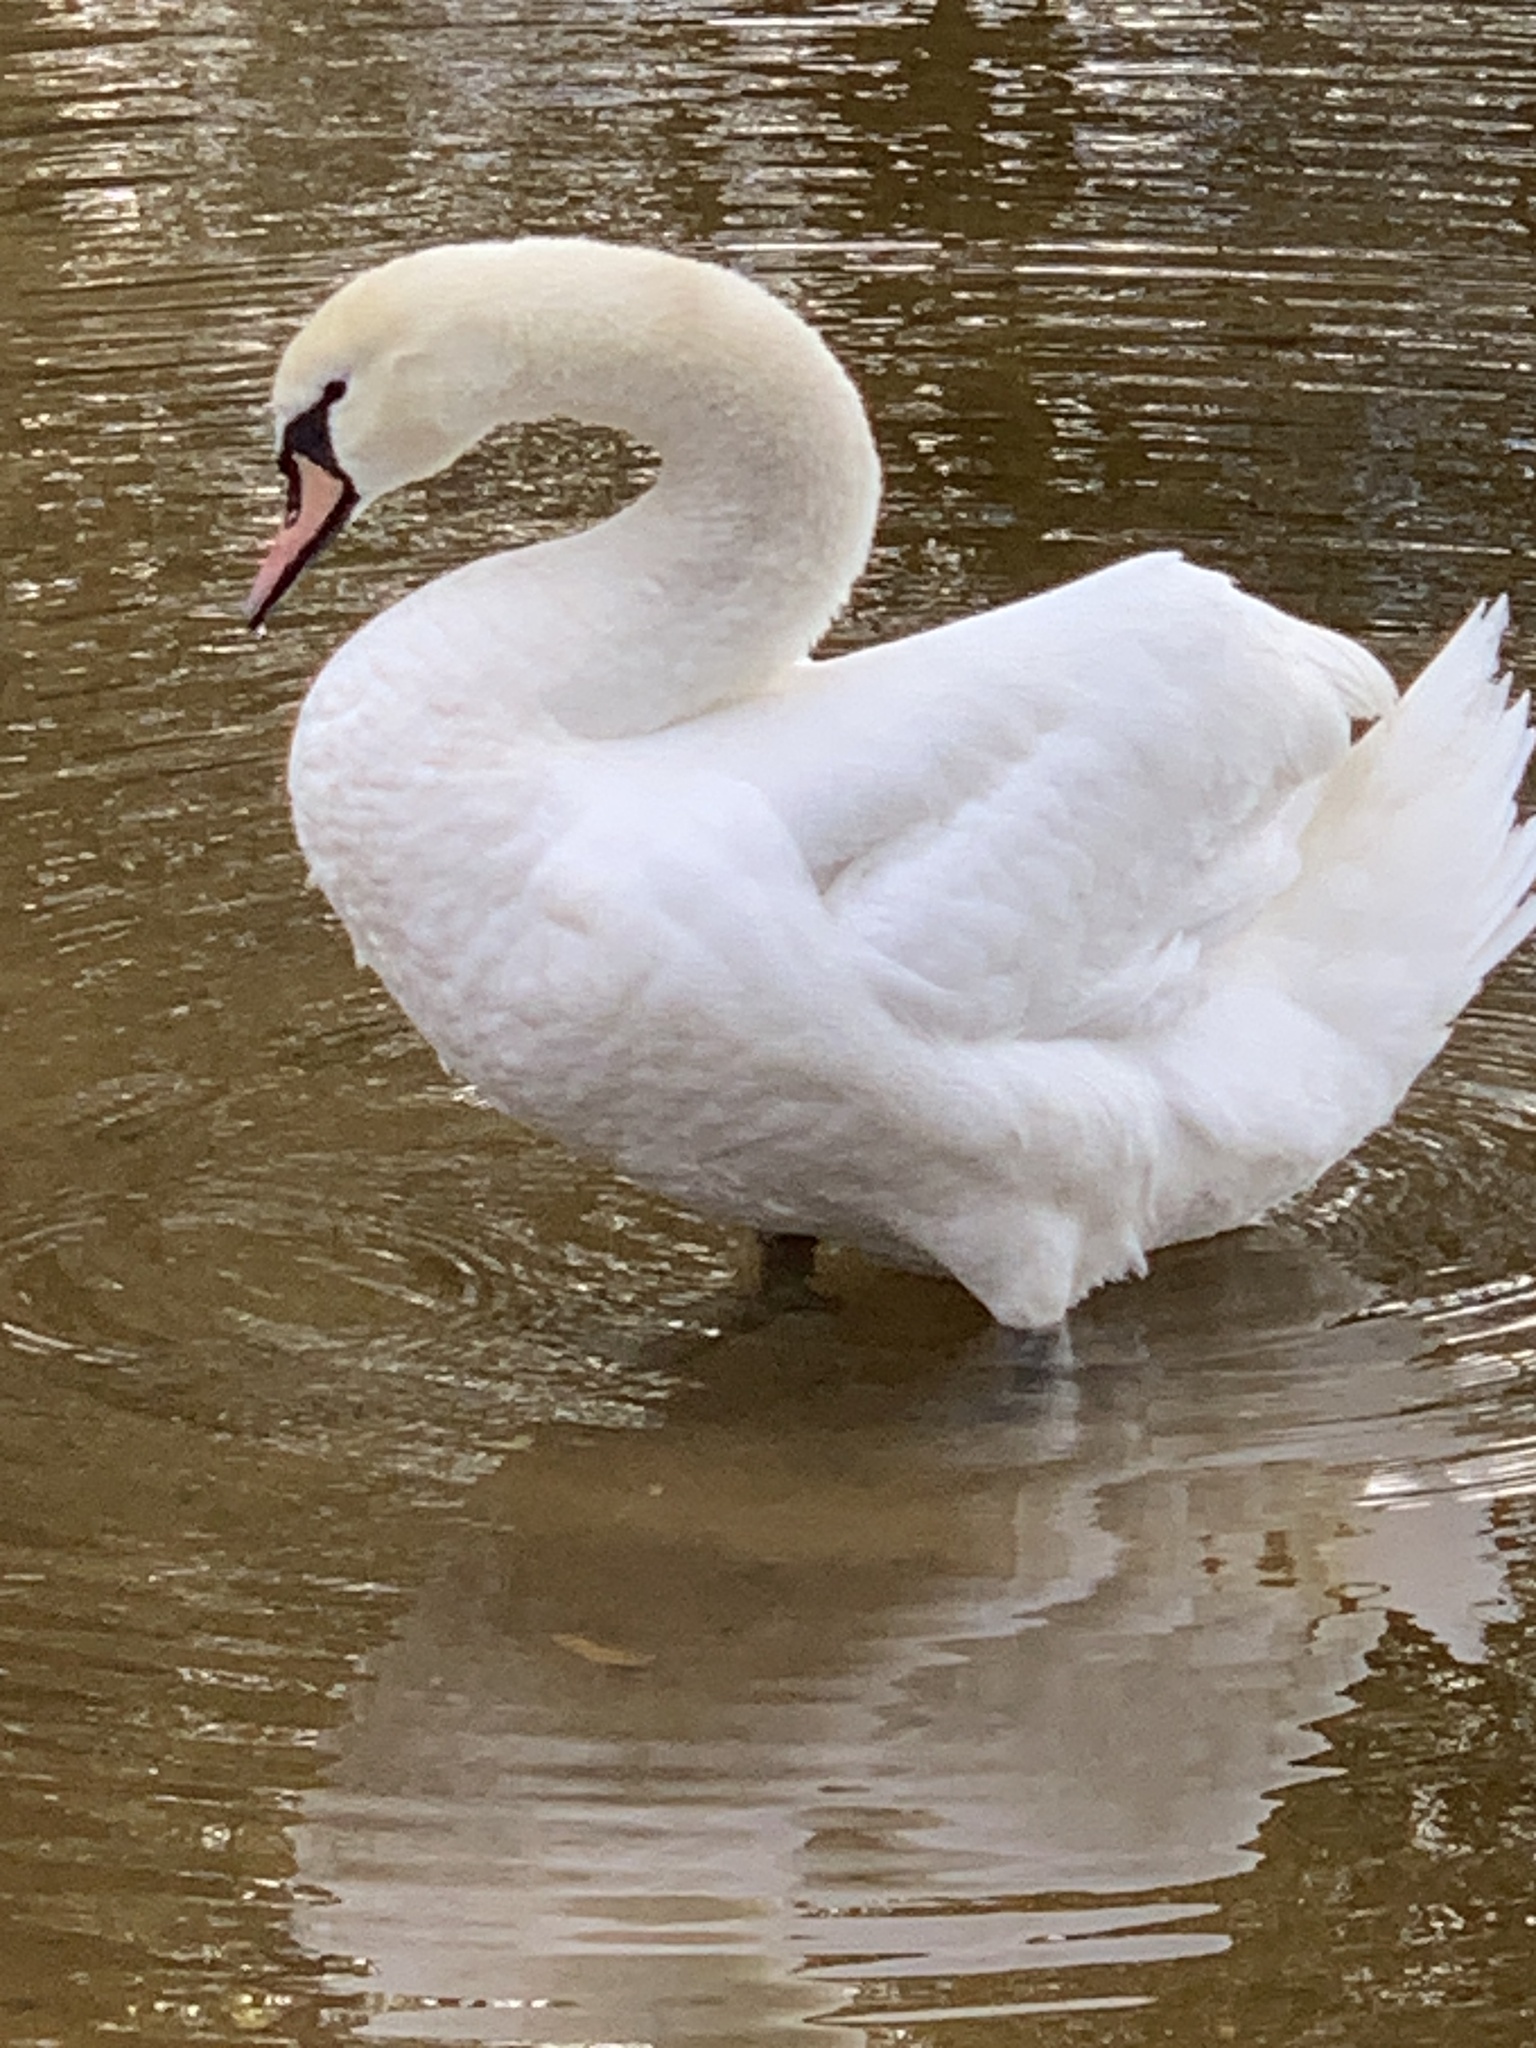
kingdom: Animalia
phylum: Chordata
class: Aves
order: Anseriformes
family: Anatidae
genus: Cygnus
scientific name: Cygnus olor
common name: Mute swan
